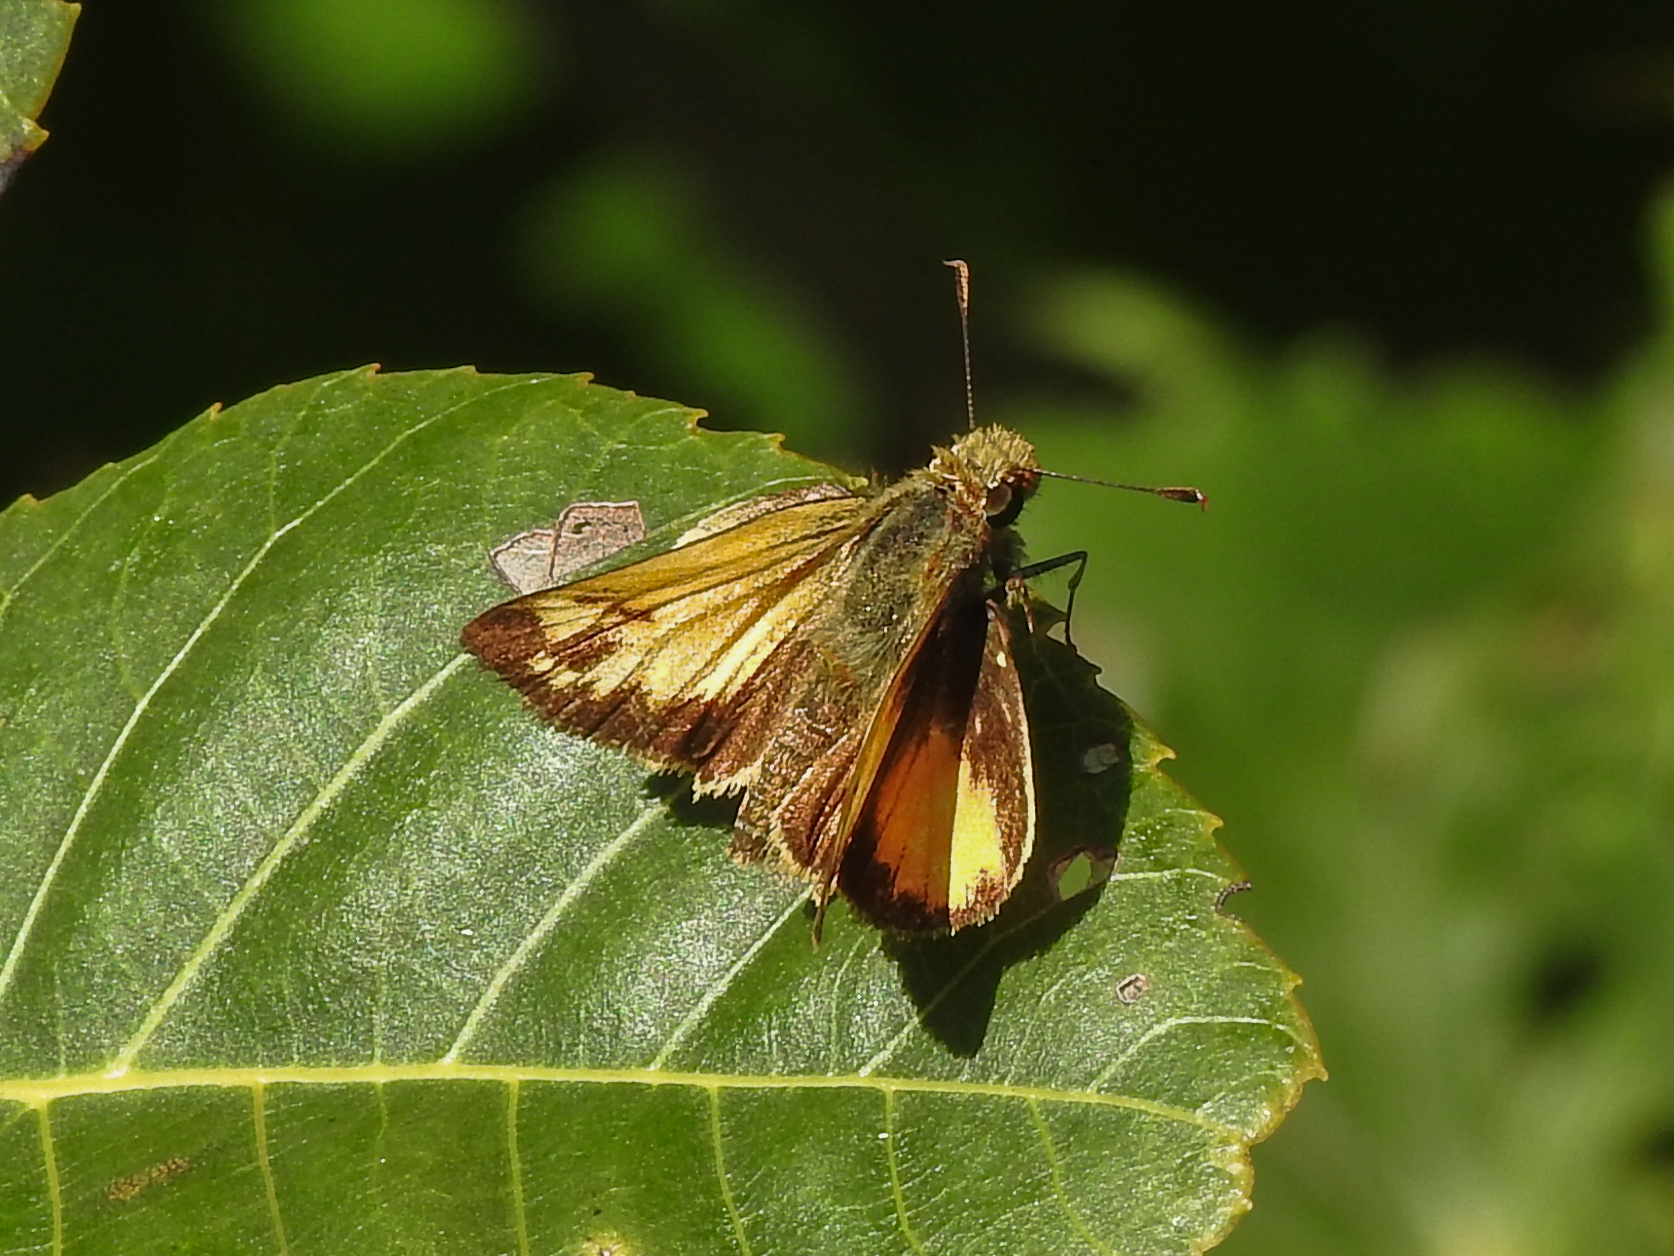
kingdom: Animalia
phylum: Arthropoda
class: Insecta
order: Lepidoptera
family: Hesperiidae
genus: Lon
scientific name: Lon zabulon
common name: Zabulon skipper
